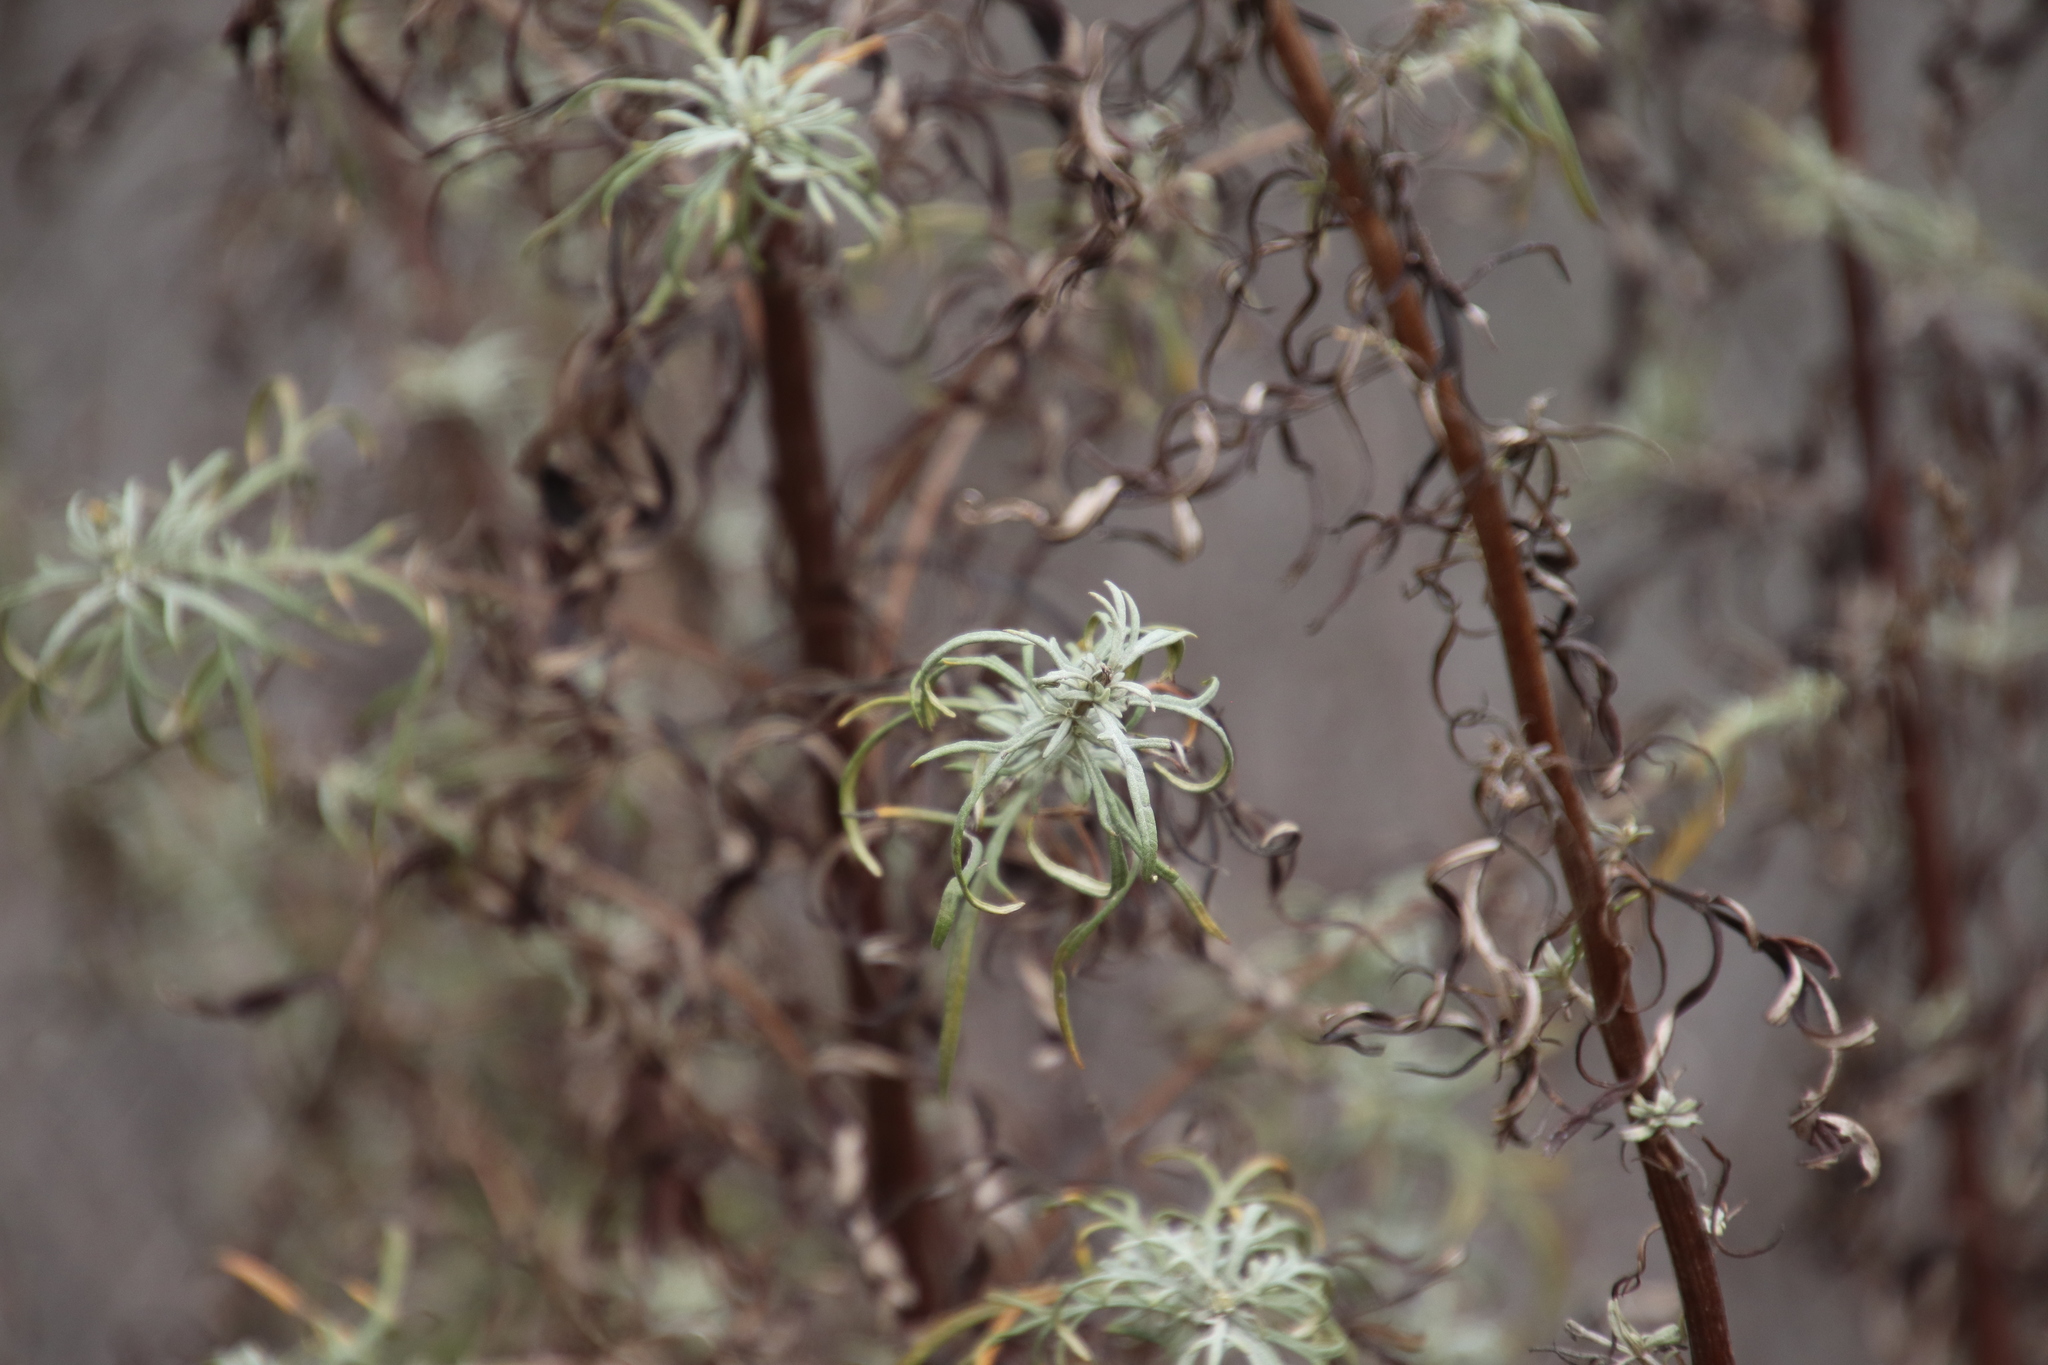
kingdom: Plantae
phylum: Tracheophyta
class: Magnoliopsida
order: Asterales
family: Asteraceae
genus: Artemisia
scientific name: Artemisia palmeri
